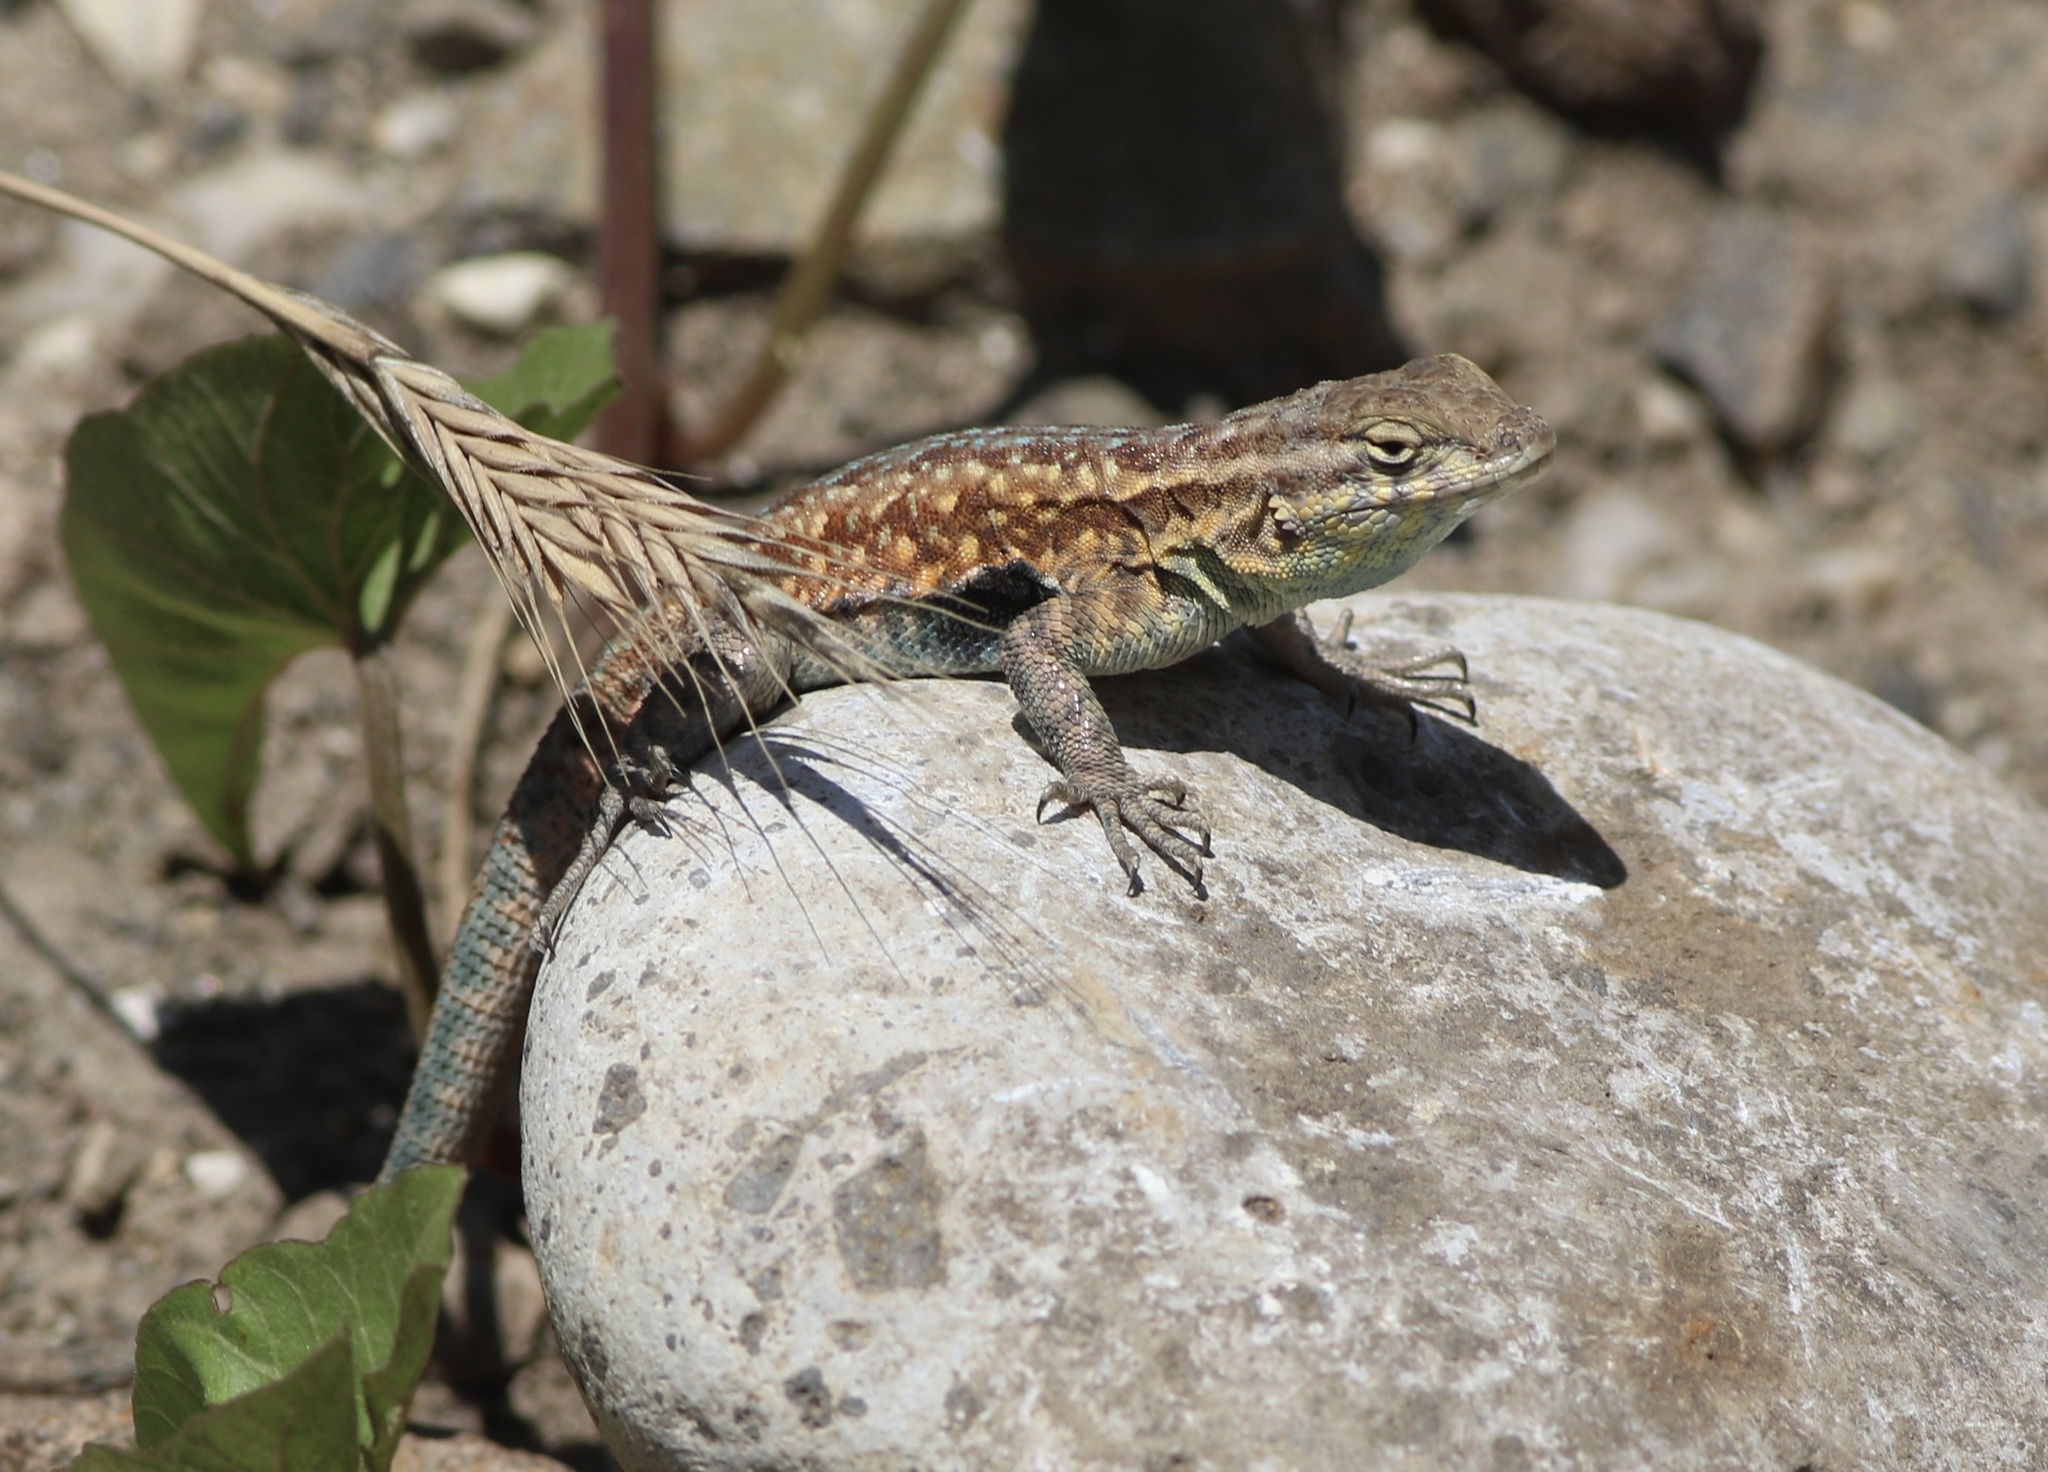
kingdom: Animalia
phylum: Chordata
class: Squamata
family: Phrynosomatidae
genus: Uta
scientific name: Uta stansburiana
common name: Side-blotched lizard
